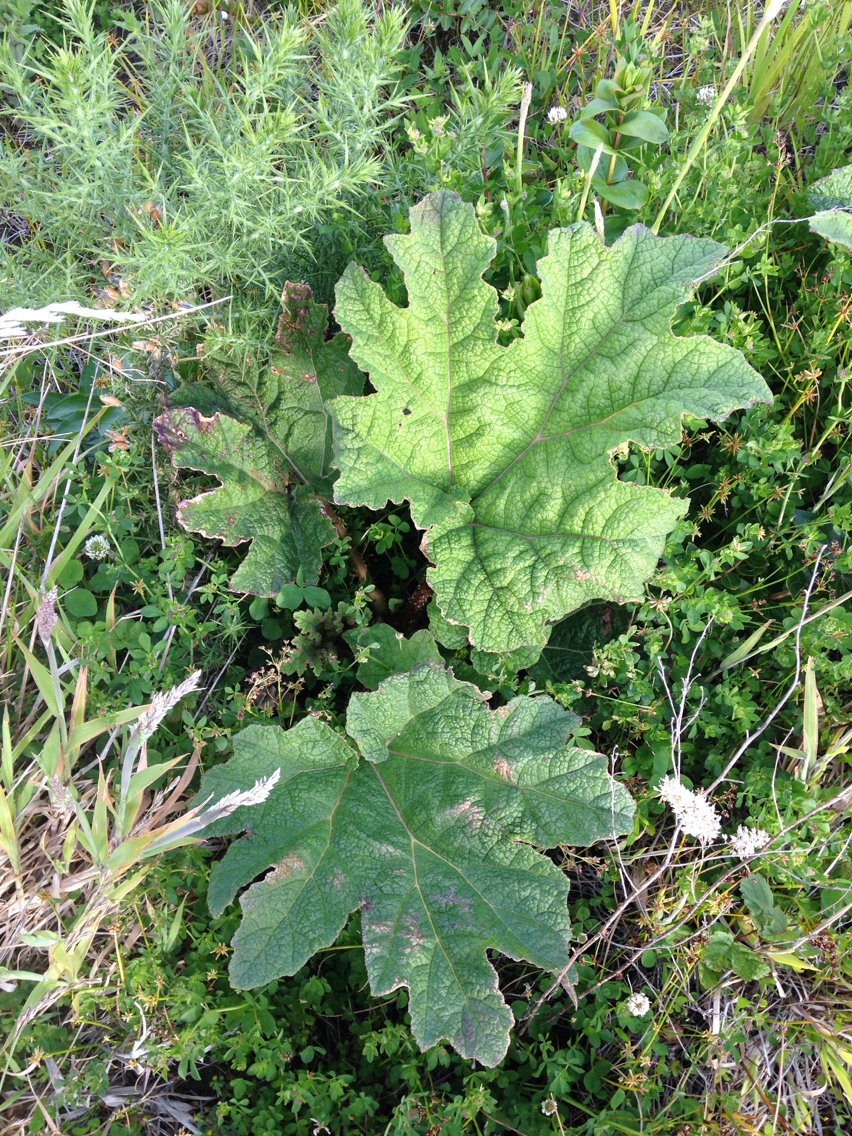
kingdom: Plantae
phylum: Tracheophyta
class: Magnoliopsida
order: Gunnerales
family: Gunneraceae
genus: Gunnera
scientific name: Gunnera tinctoria
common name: Giant-rhubarb
